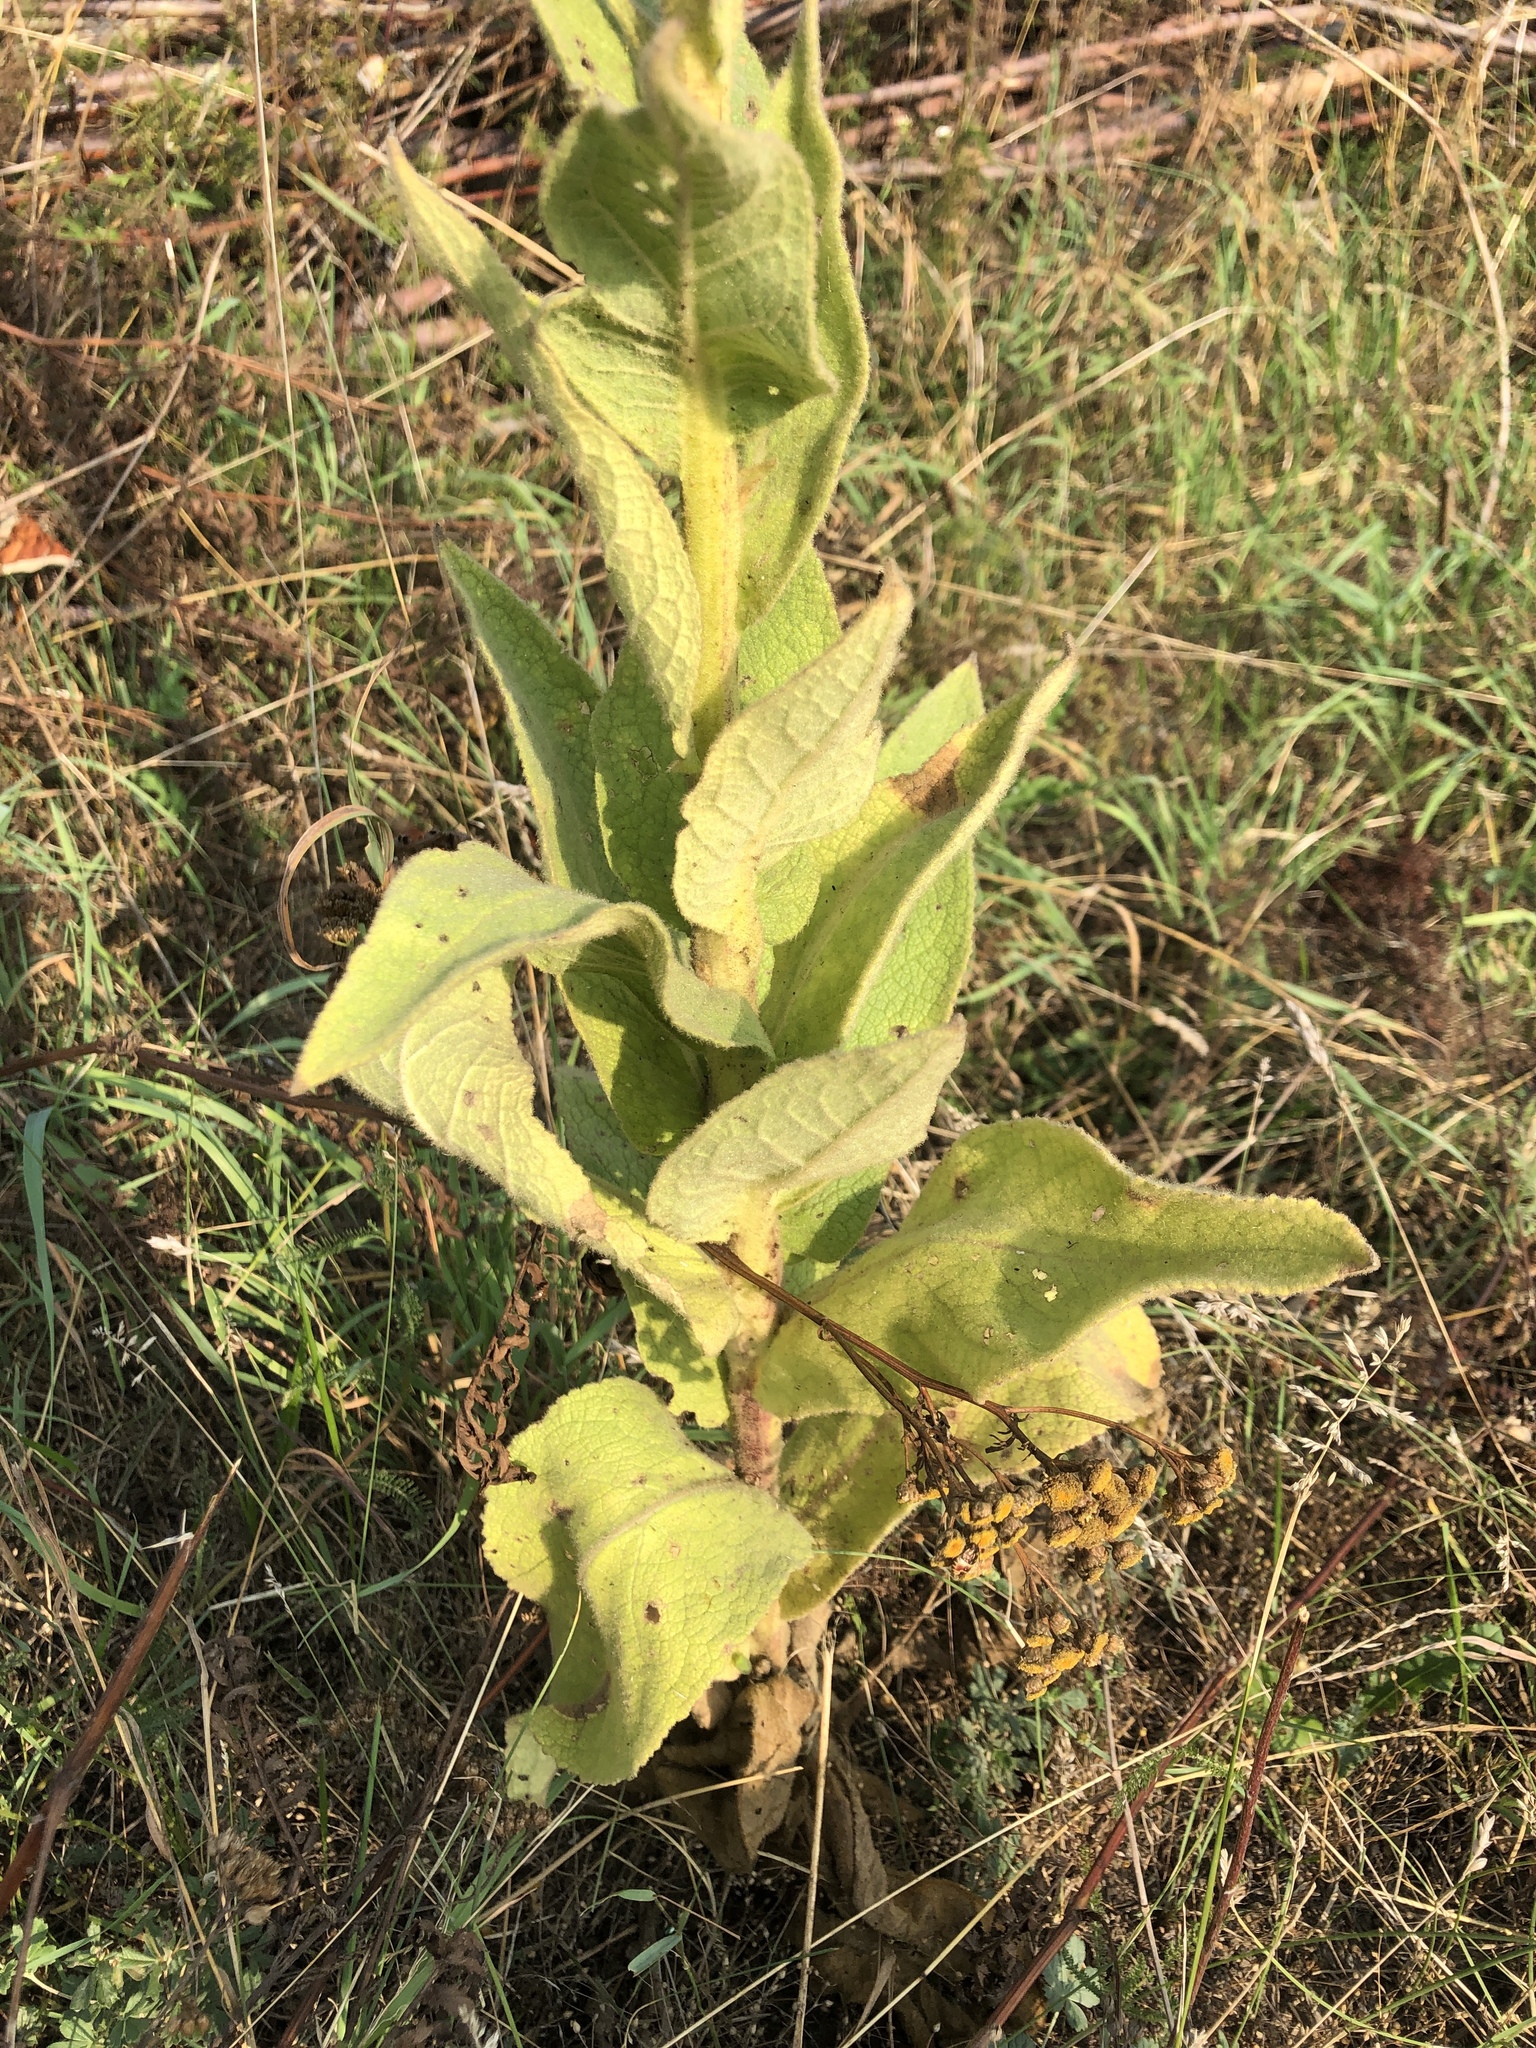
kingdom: Plantae
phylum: Tracheophyta
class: Magnoliopsida
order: Lamiales
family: Scrophulariaceae
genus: Verbascum
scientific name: Verbascum phlomoides
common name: Orange mullein
